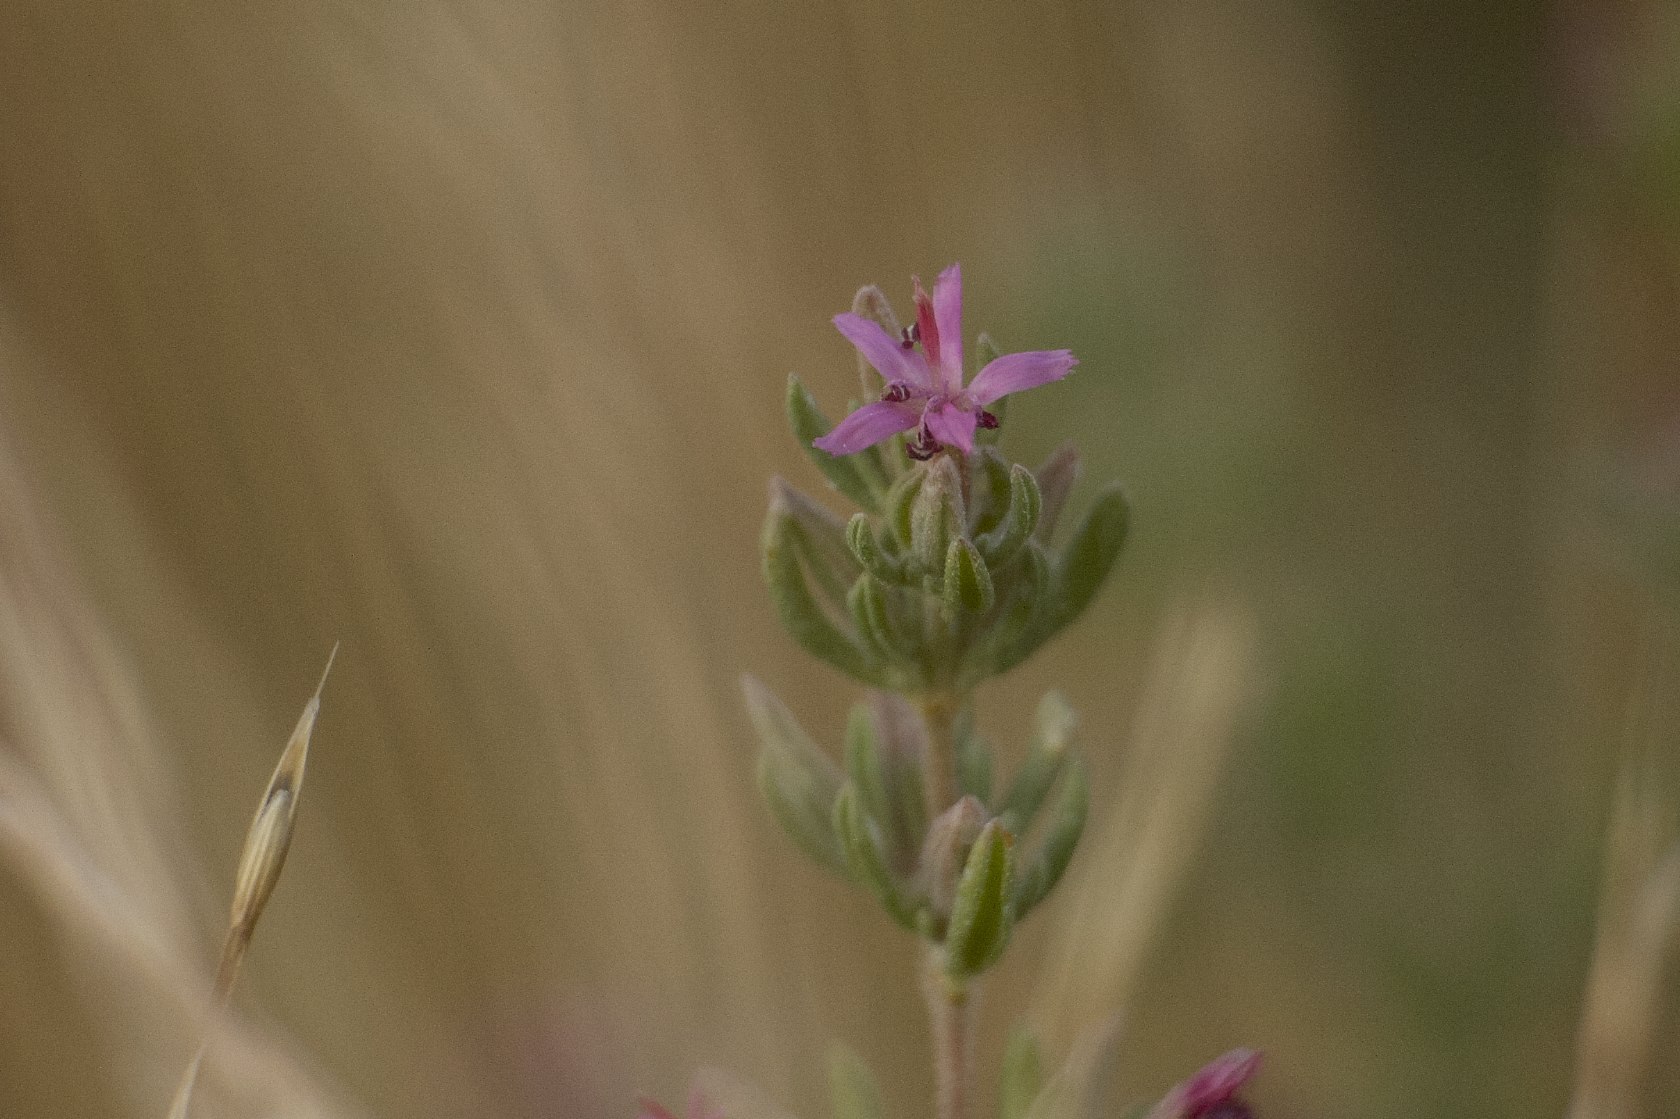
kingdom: Plantae
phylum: Tracheophyta
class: Magnoliopsida
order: Caryophyllales
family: Frankeniaceae
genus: Frankenia
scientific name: Frankenia salina
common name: Alkali seaheath
